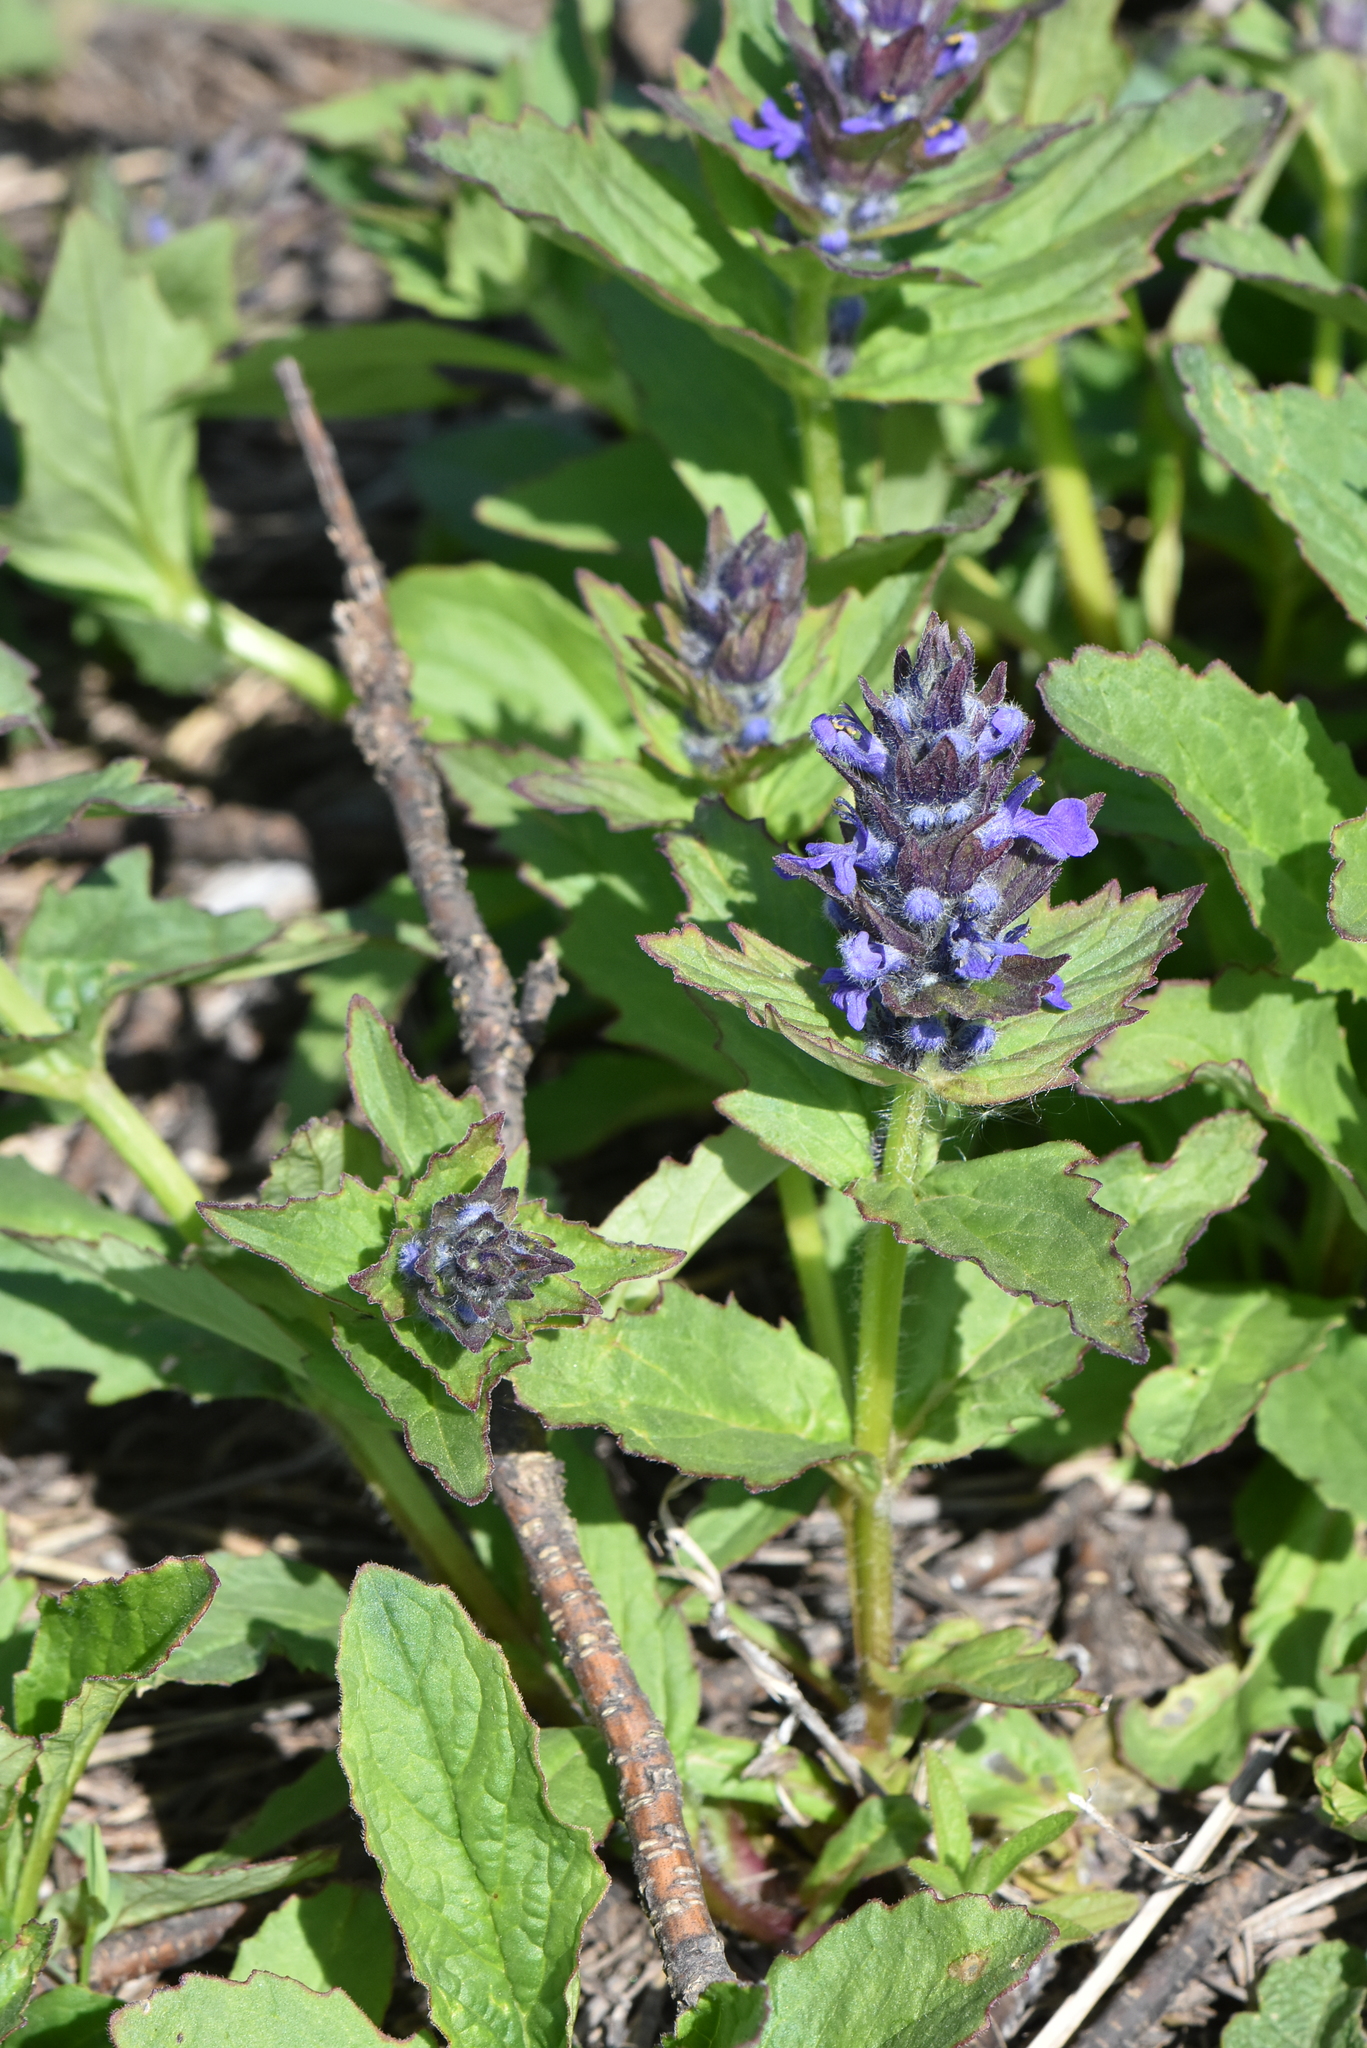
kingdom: Plantae
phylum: Tracheophyta
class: Magnoliopsida
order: Lamiales
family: Lamiaceae
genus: Ajuga
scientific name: Ajuga genevensis
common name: Blue bugle
